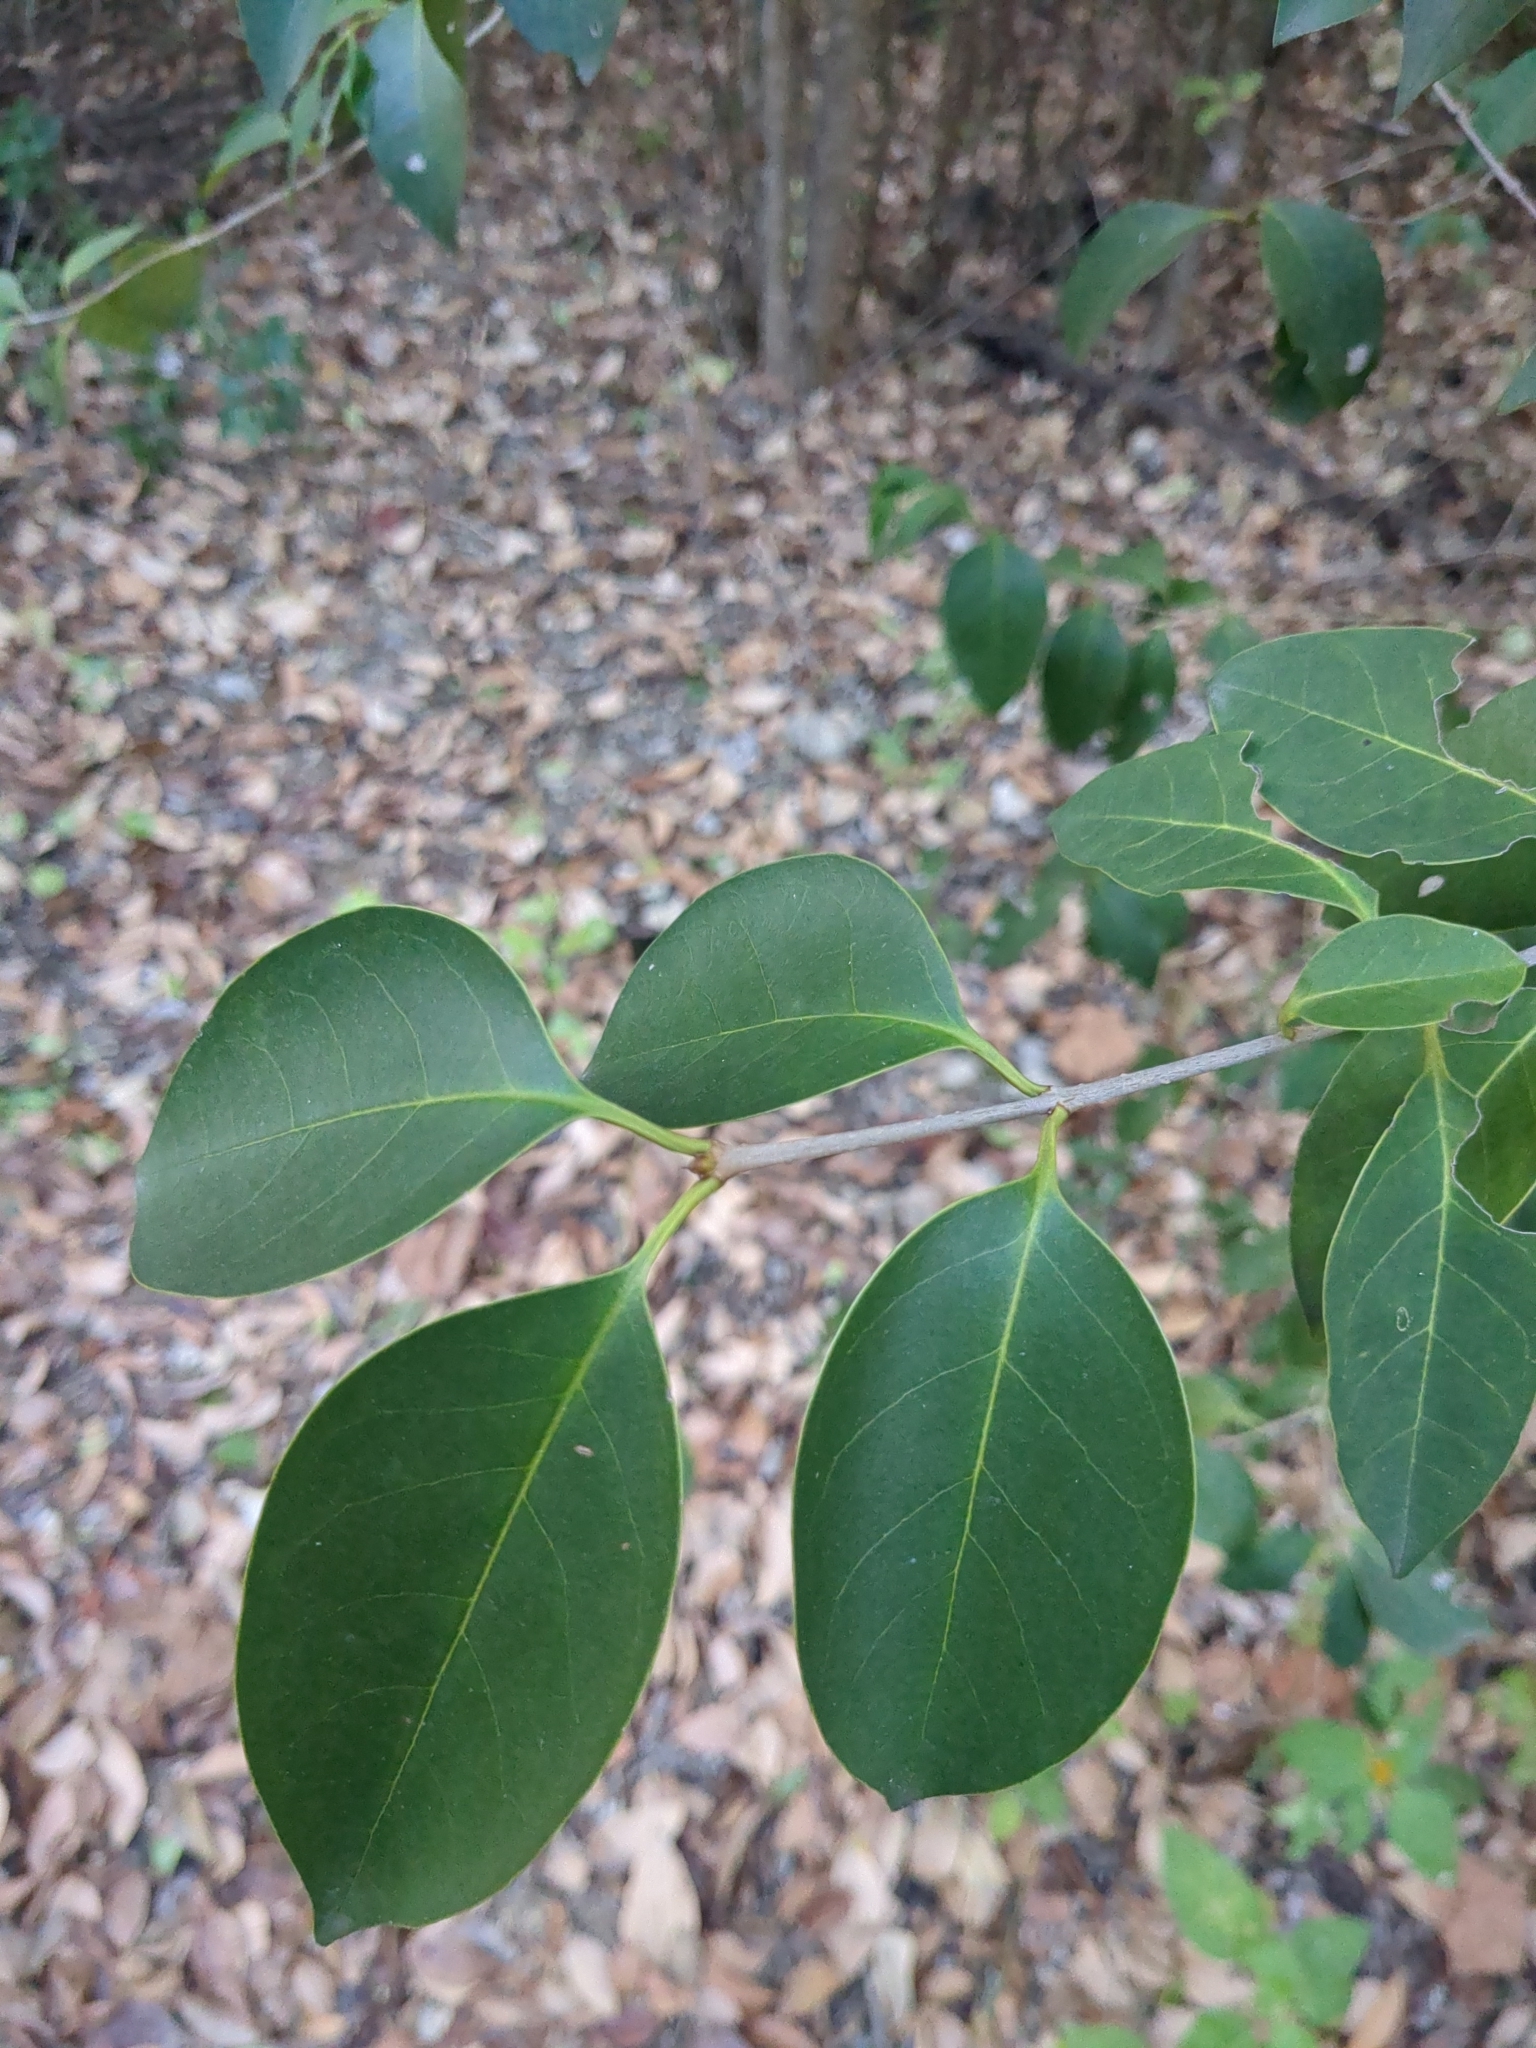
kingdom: Plantae
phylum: Tracheophyta
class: Magnoliopsida
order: Lamiales
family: Oleaceae
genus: Ligustrum
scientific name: Ligustrum lucidum
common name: Glossy privet
